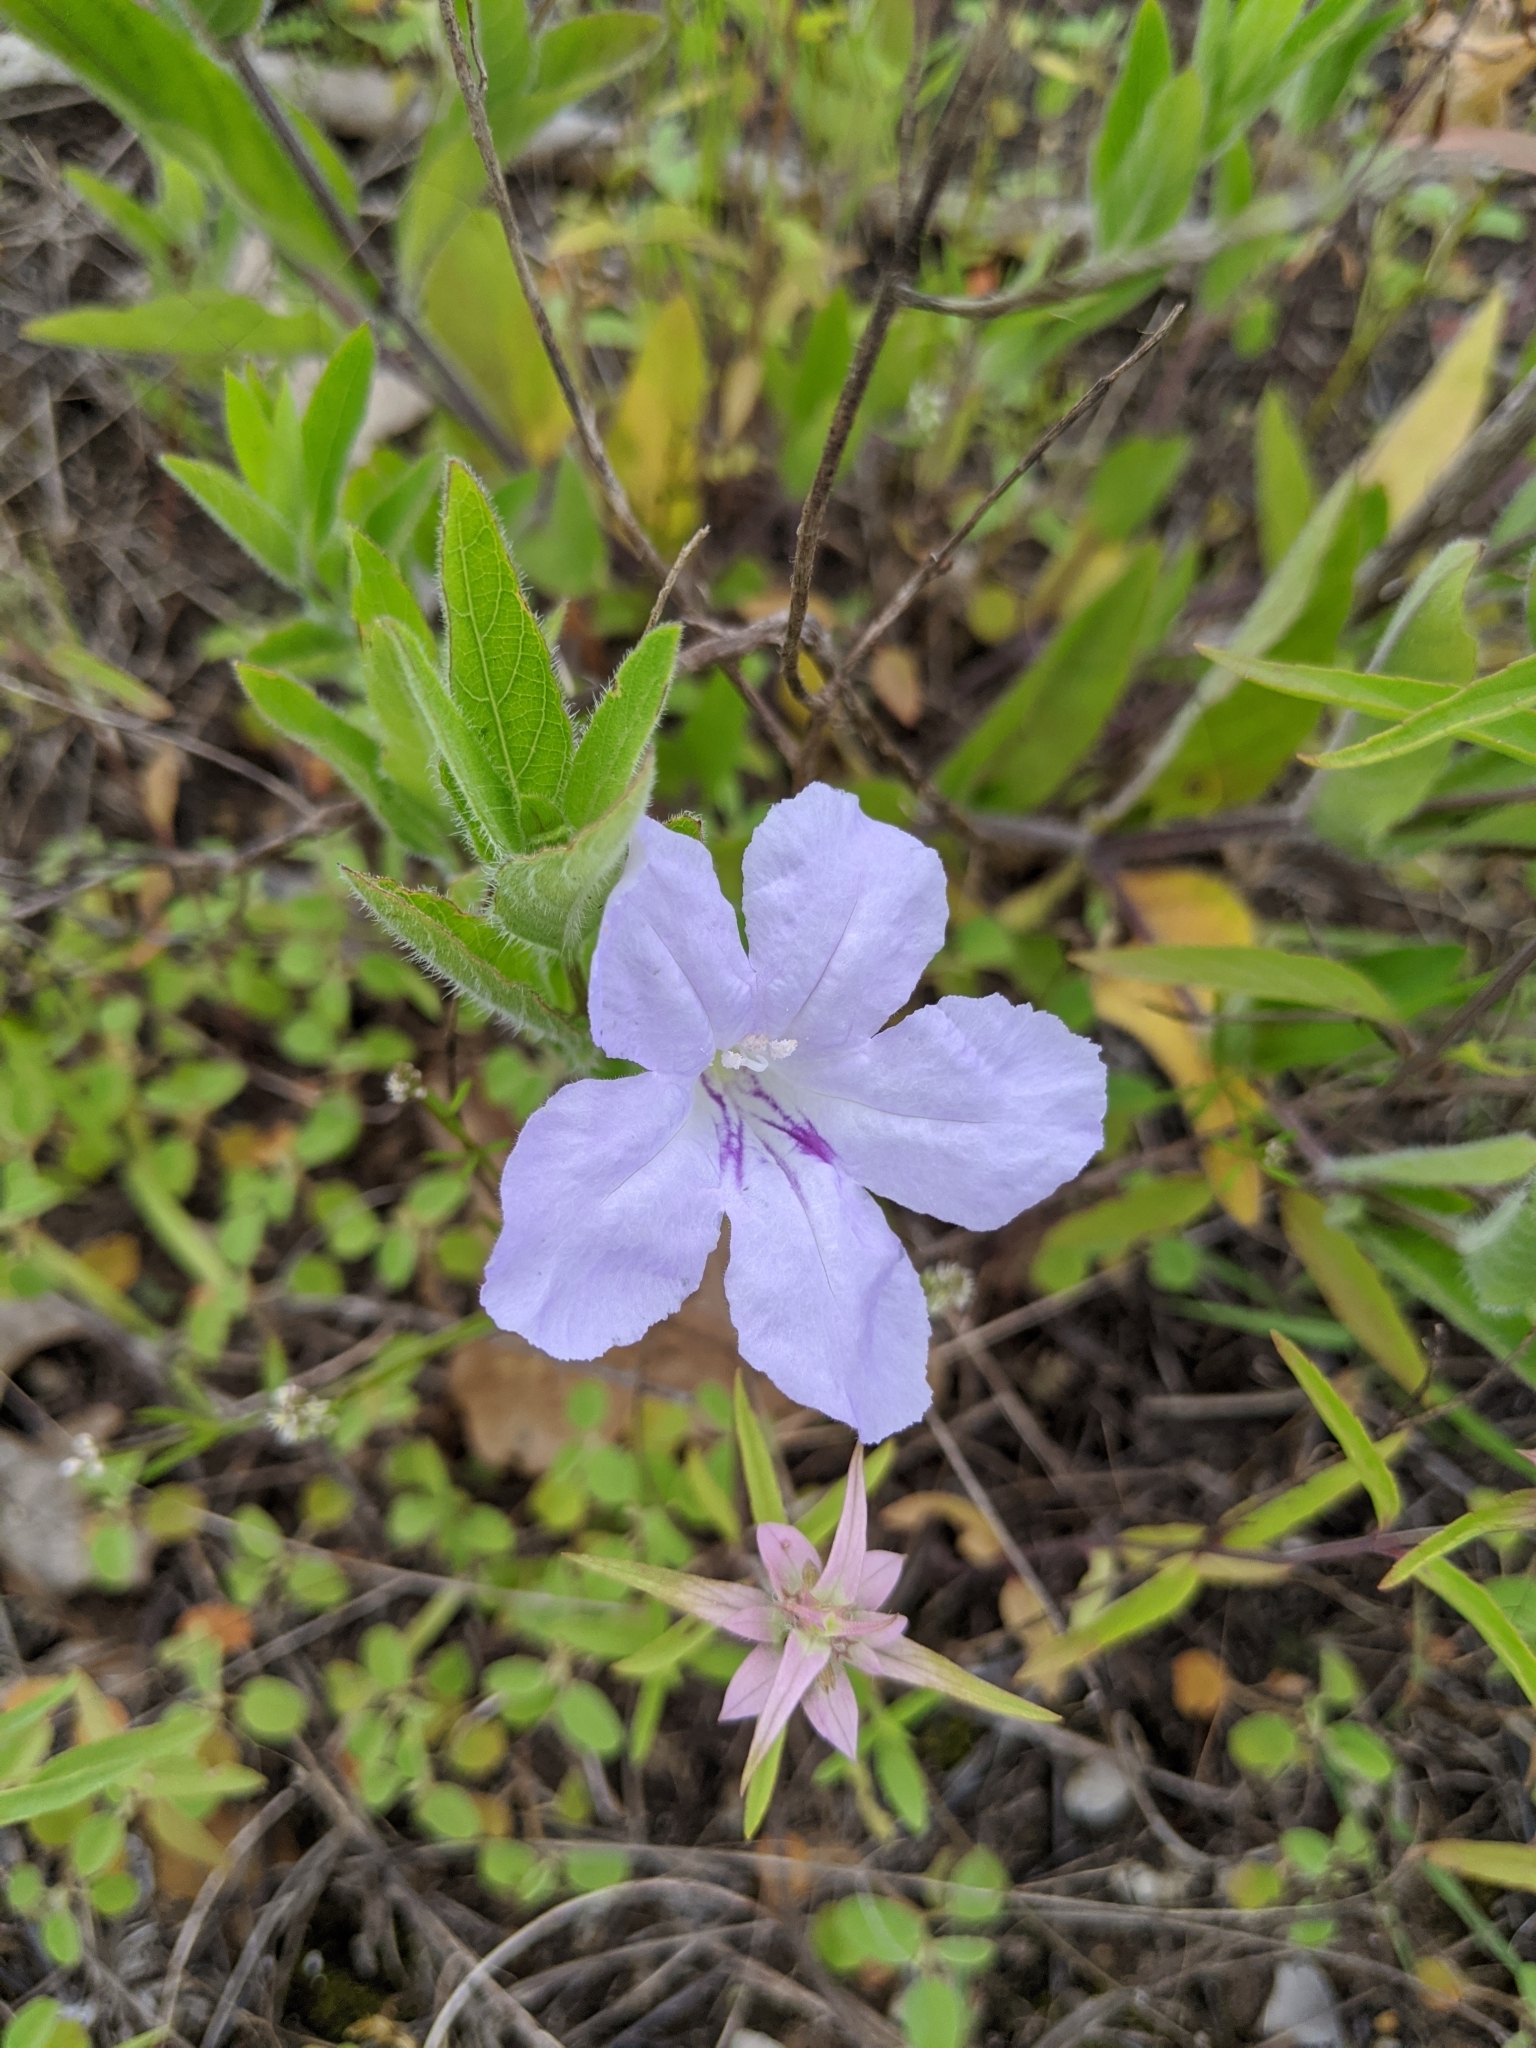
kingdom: Plantae
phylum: Tracheophyta
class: Magnoliopsida
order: Lamiales
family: Acanthaceae
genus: Ruellia
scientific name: Ruellia humilis
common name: Fringe-leaf ruellia
